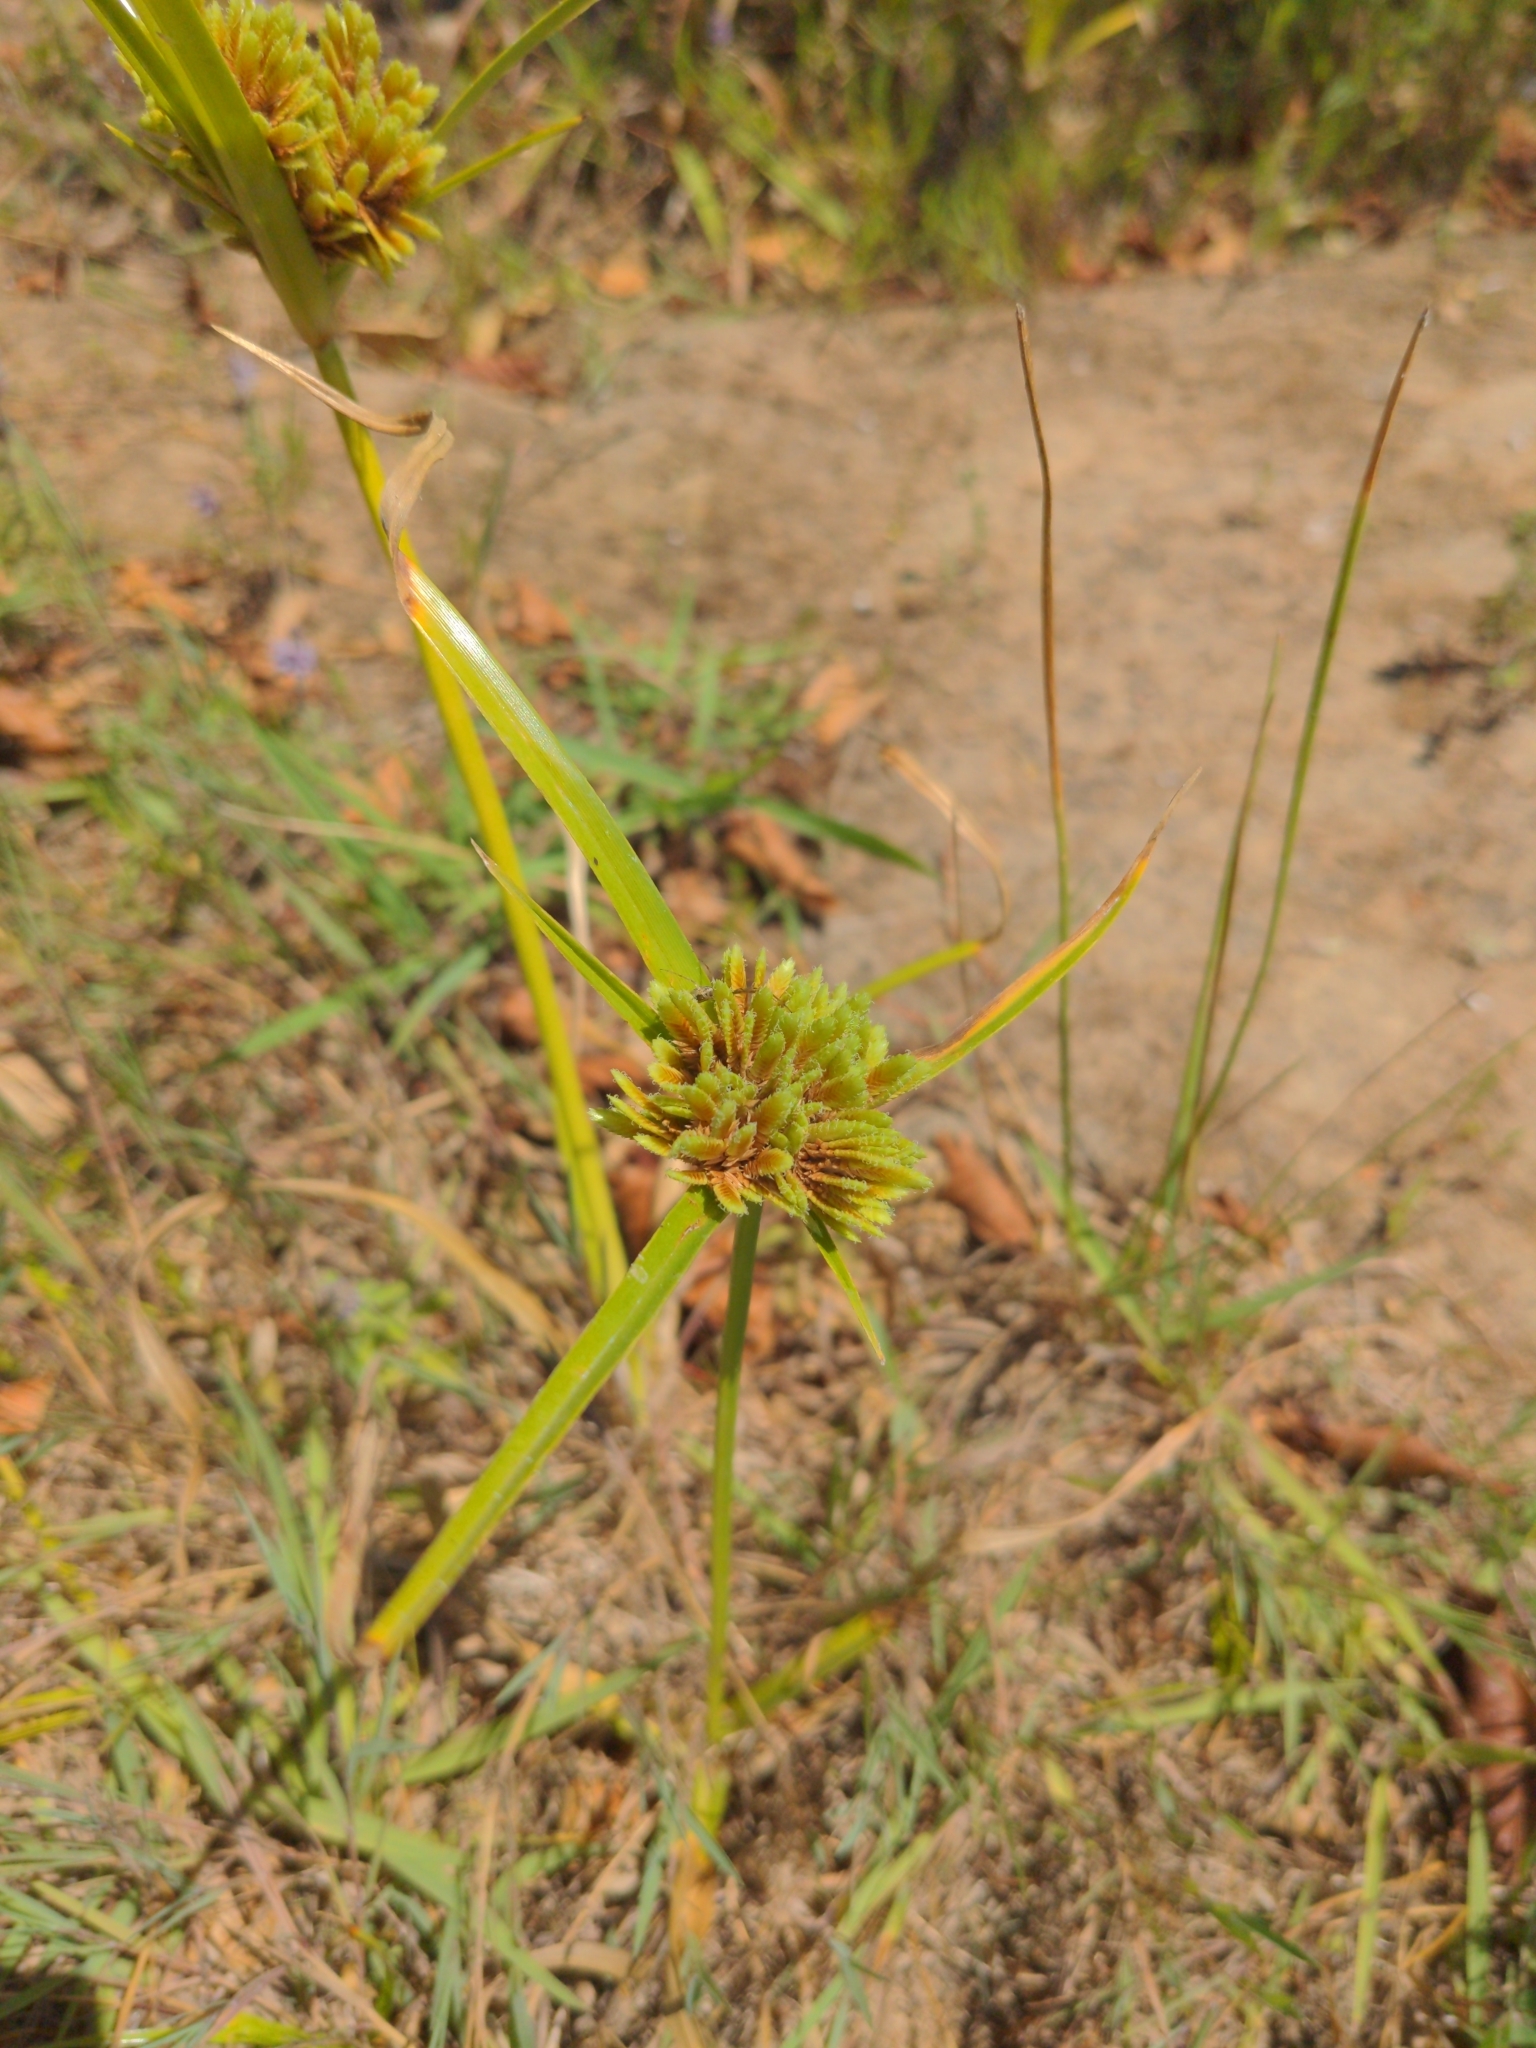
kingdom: Plantae
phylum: Tracheophyta
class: Liliopsida
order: Poales
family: Cyperaceae
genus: Cyperus
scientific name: Cyperus eragrostis
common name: Tall flatsedge
